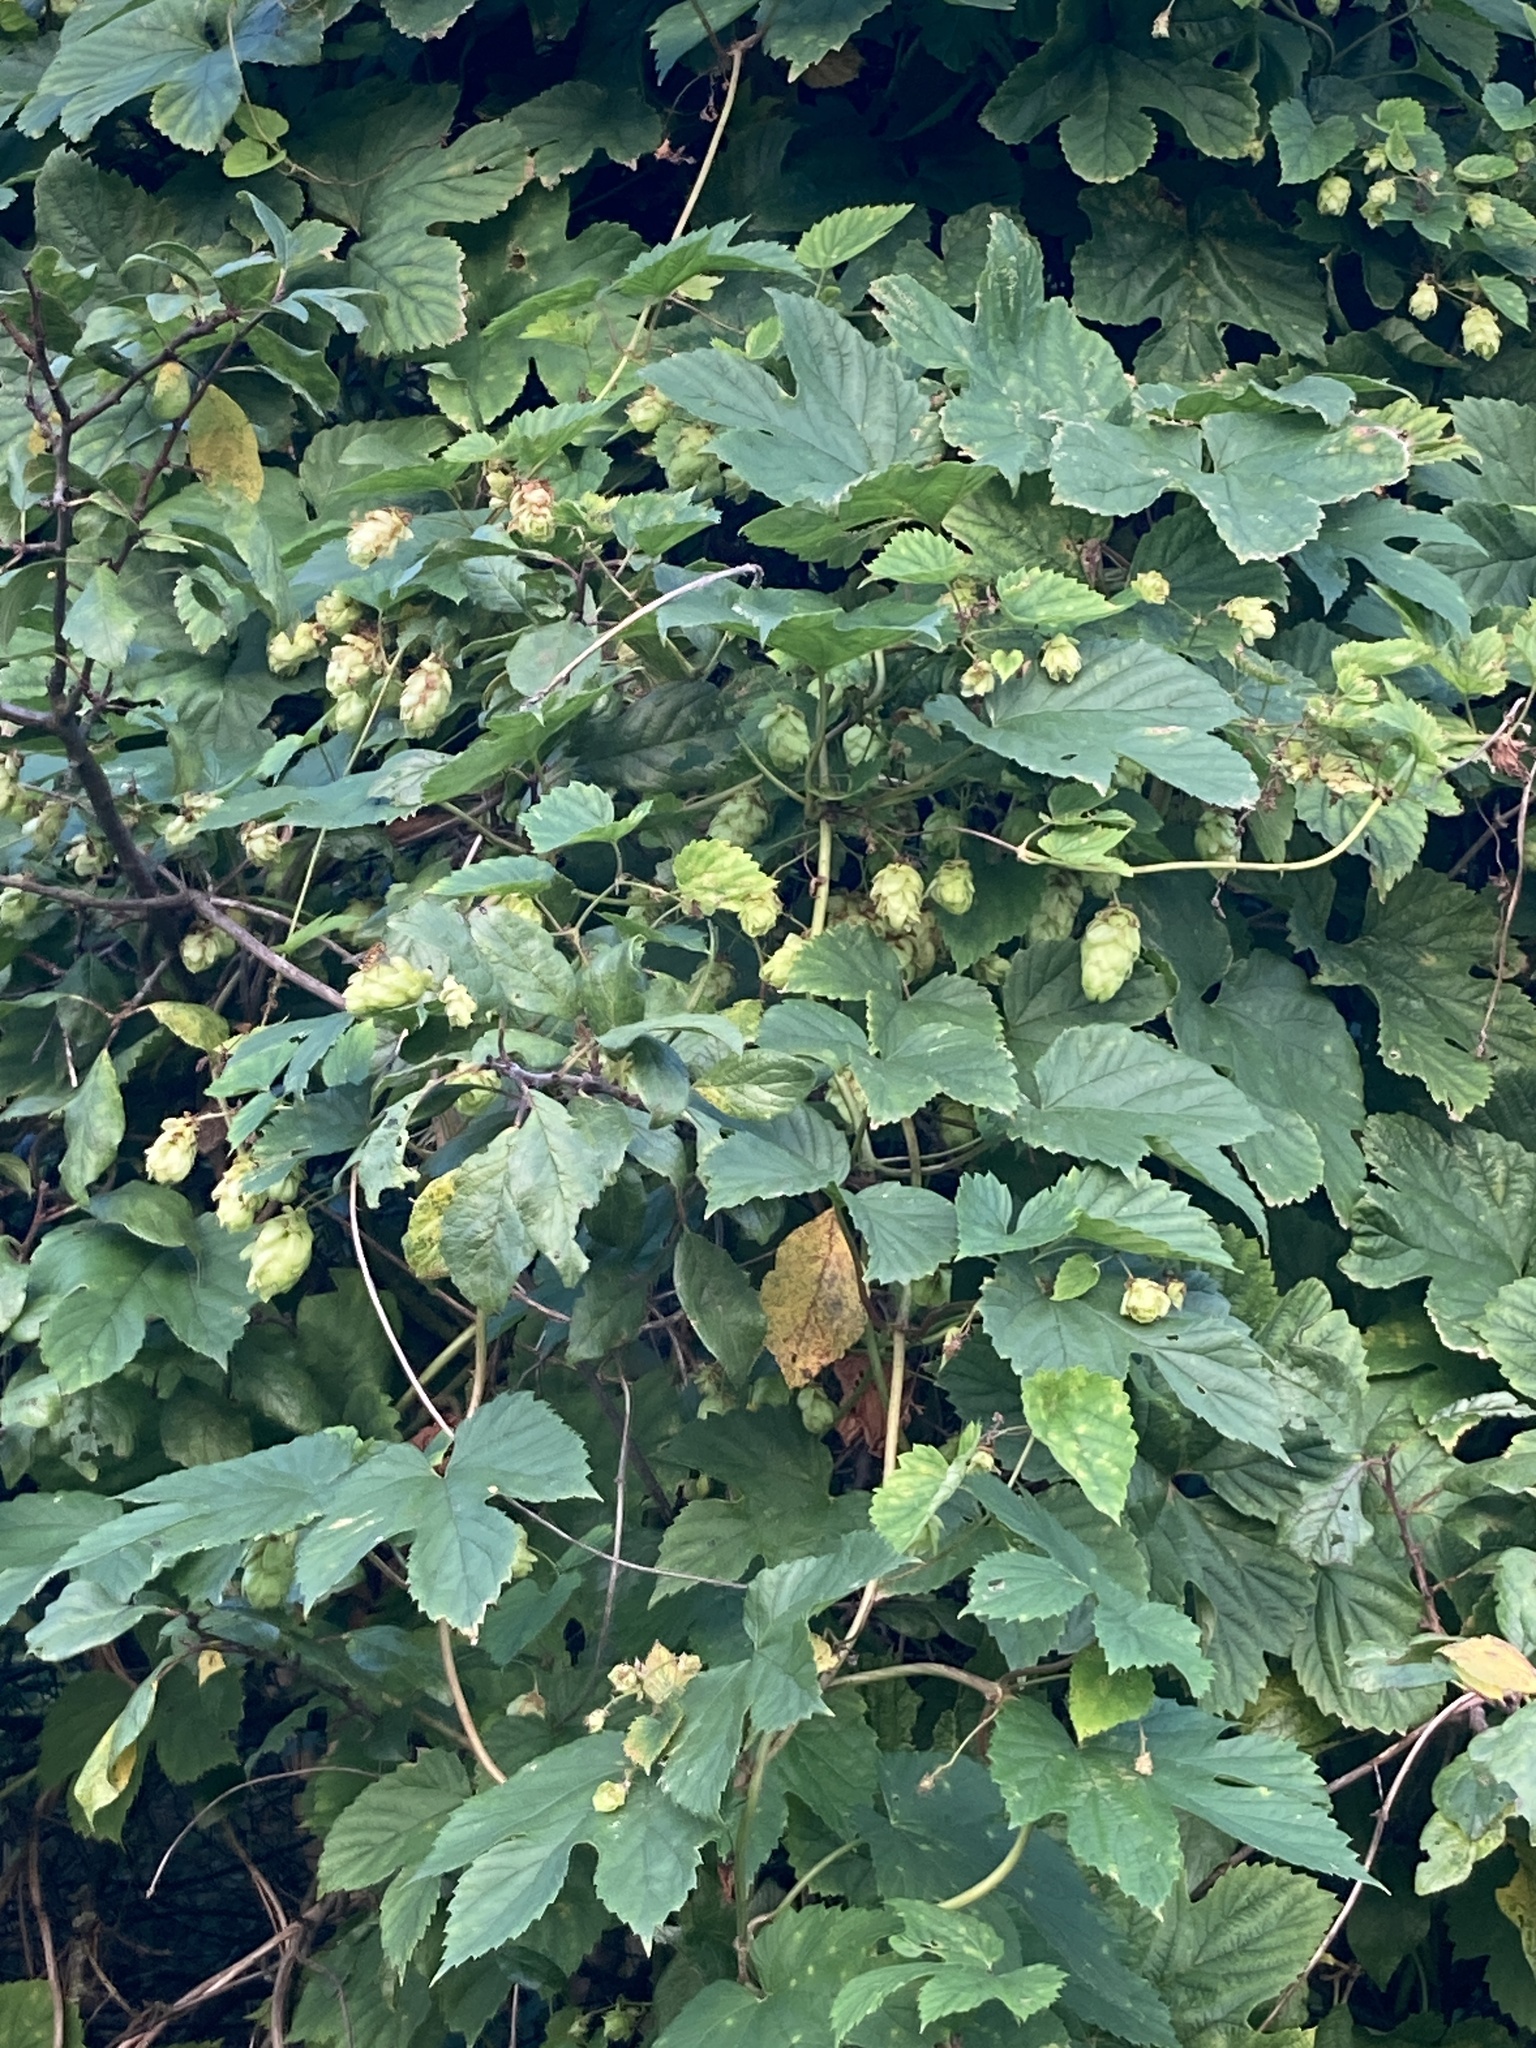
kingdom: Plantae
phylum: Tracheophyta
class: Magnoliopsida
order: Rosales
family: Cannabaceae
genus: Humulus
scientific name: Humulus lupulus
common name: Hop
